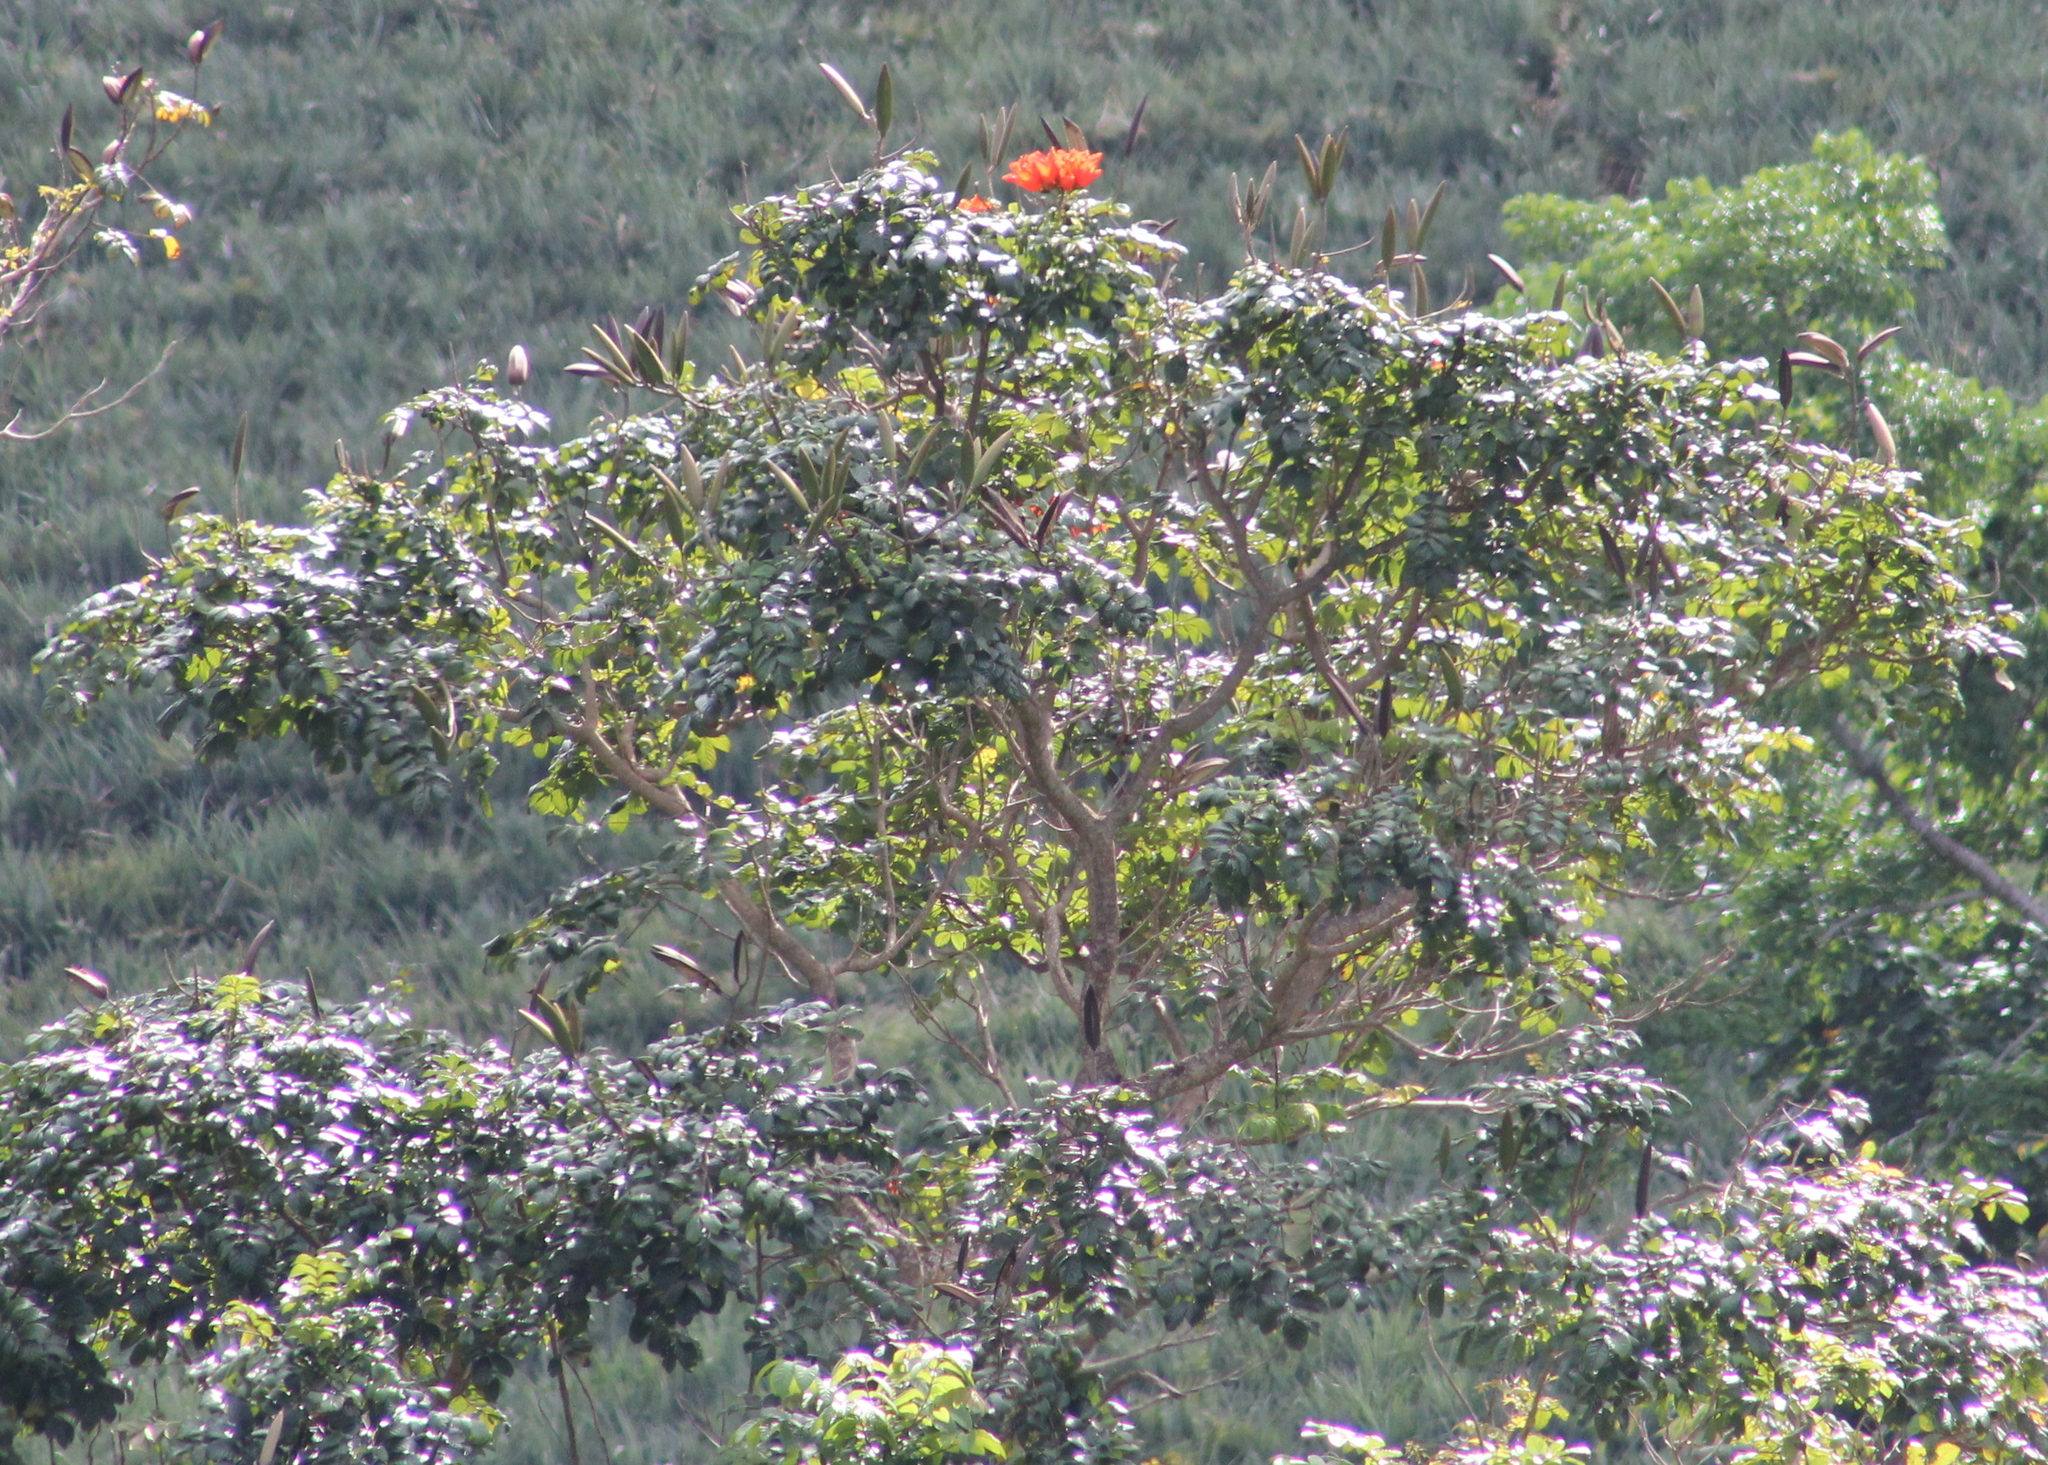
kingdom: Plantae
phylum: Tracheophyta
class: Magnoliopsida
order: Lamiales
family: Bignoniaceae
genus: Spathodea
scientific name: Spathodea campanulata
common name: African tuliptree
